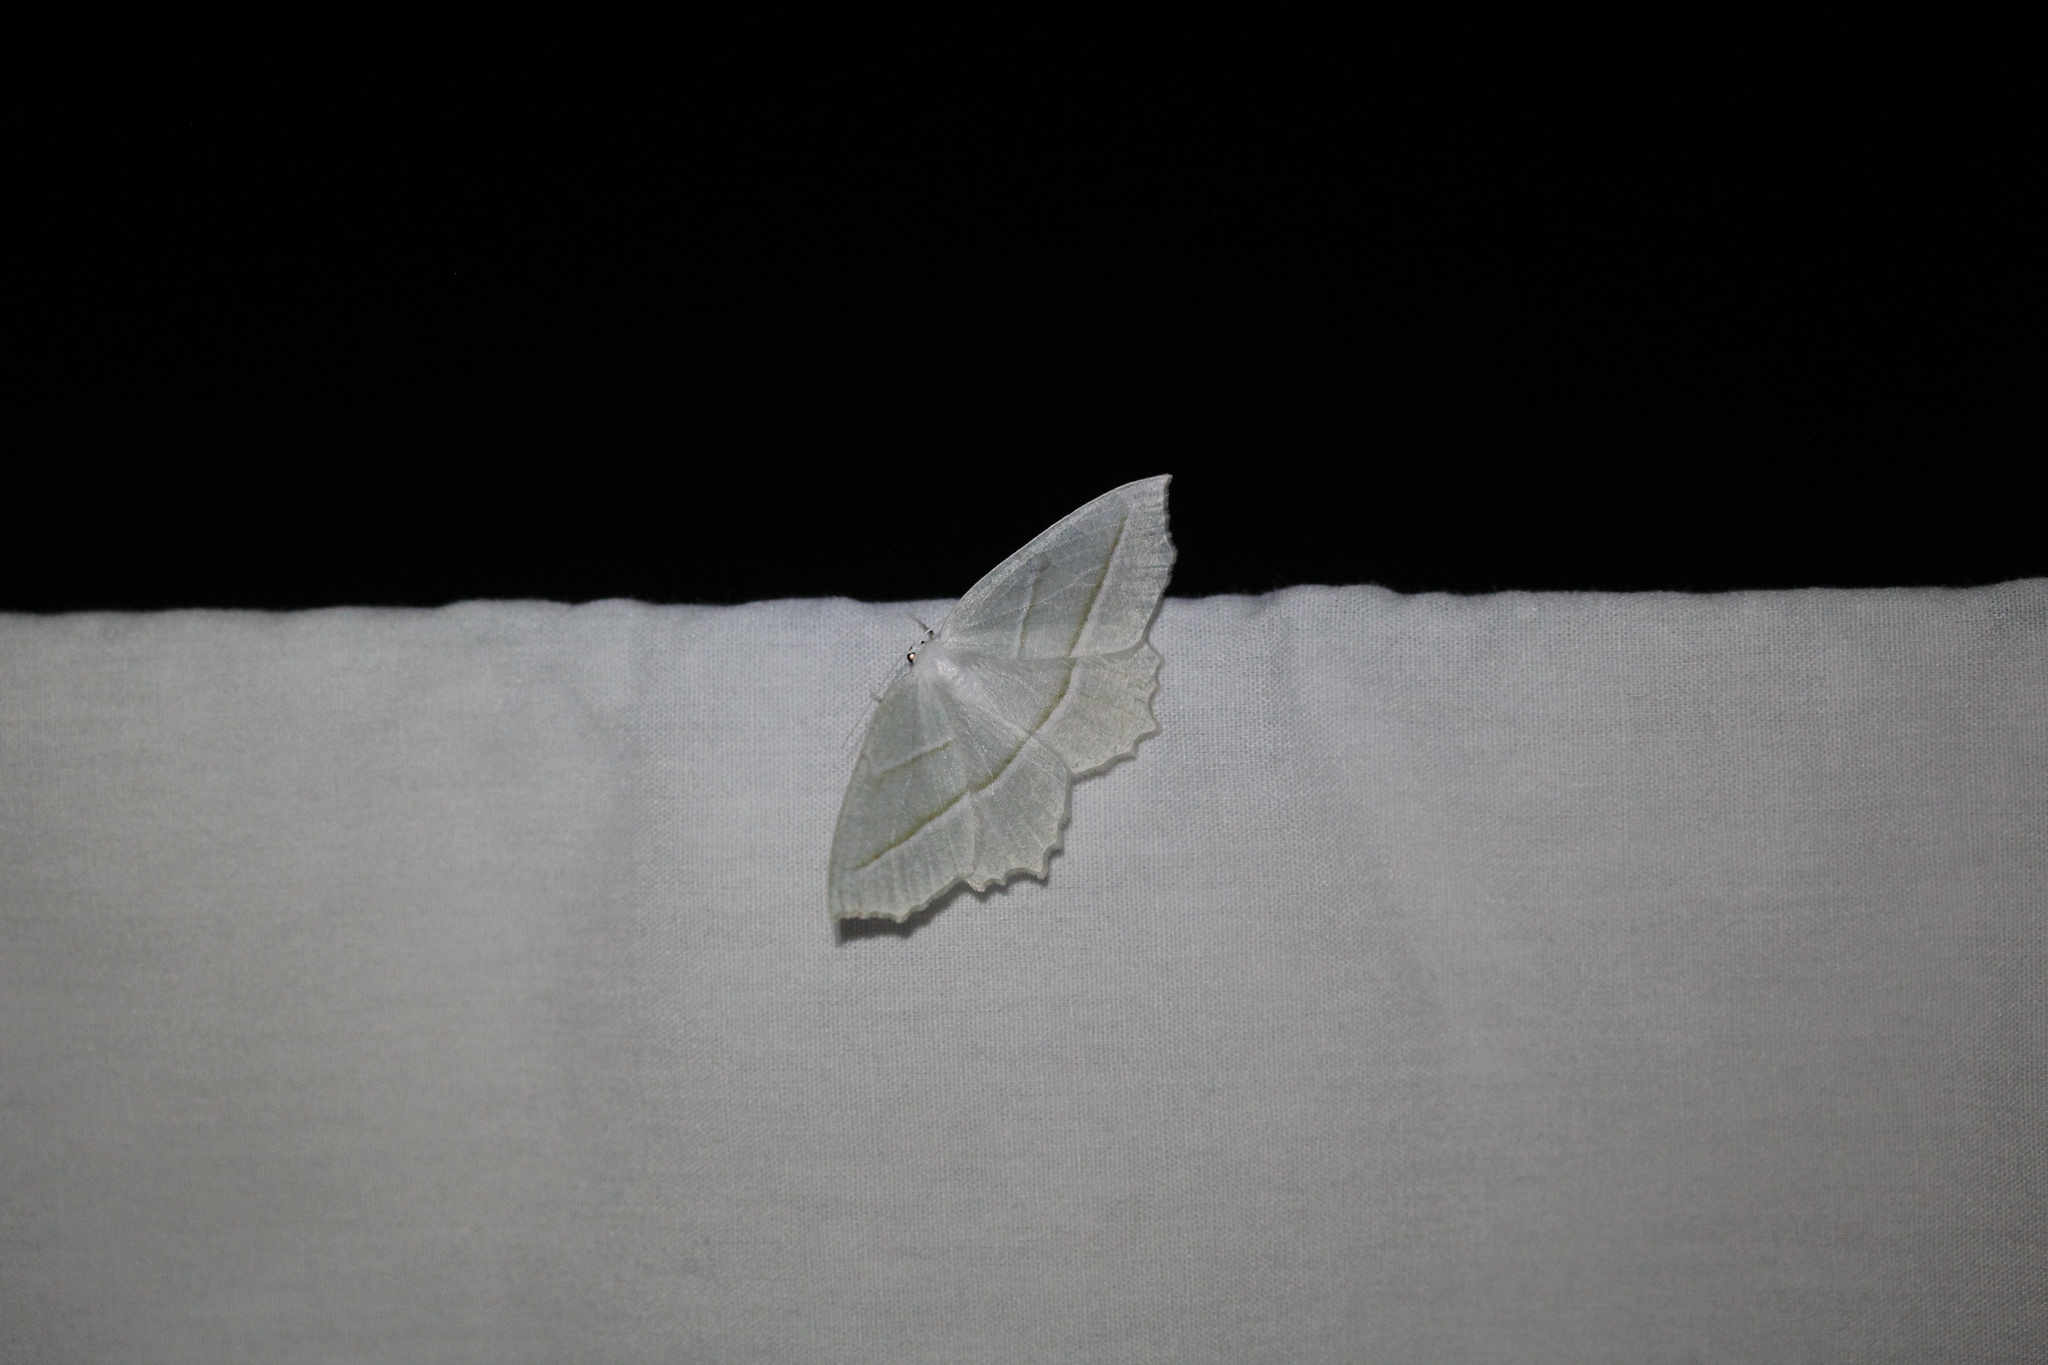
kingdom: Animalia
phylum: Arthropoda
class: Insecta
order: Lepidoptera
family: Geometridae
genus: Campaea
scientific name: Campaea perlata
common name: Fringed looper
